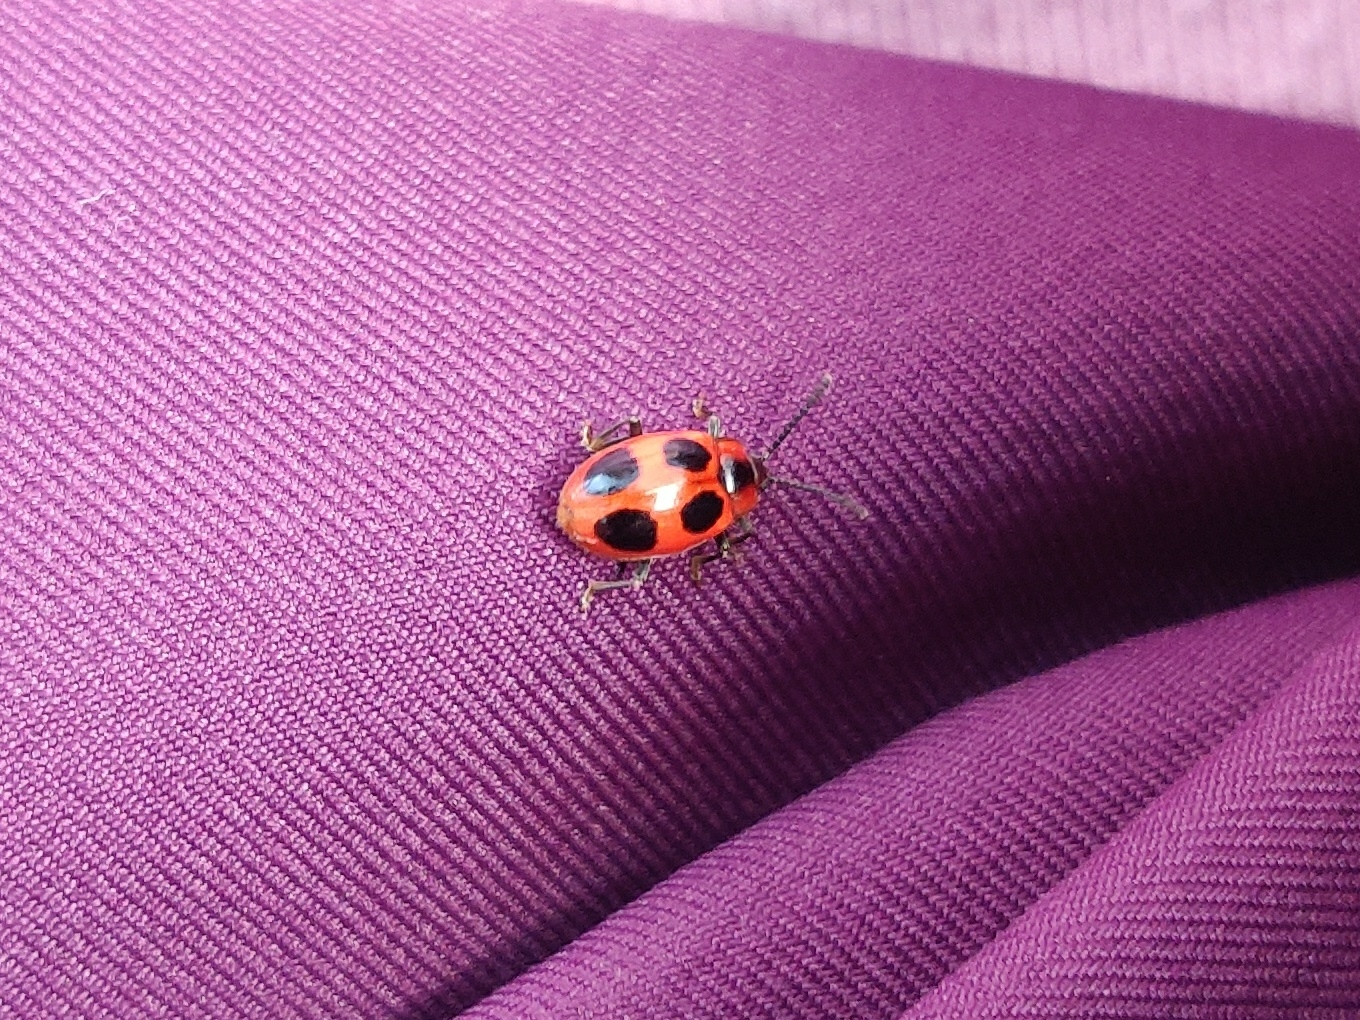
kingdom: Animalia
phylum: Arthropoda
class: Insecta
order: Coleoptera
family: Endomychidae
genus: Endomychus
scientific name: Endomychus coccineus
